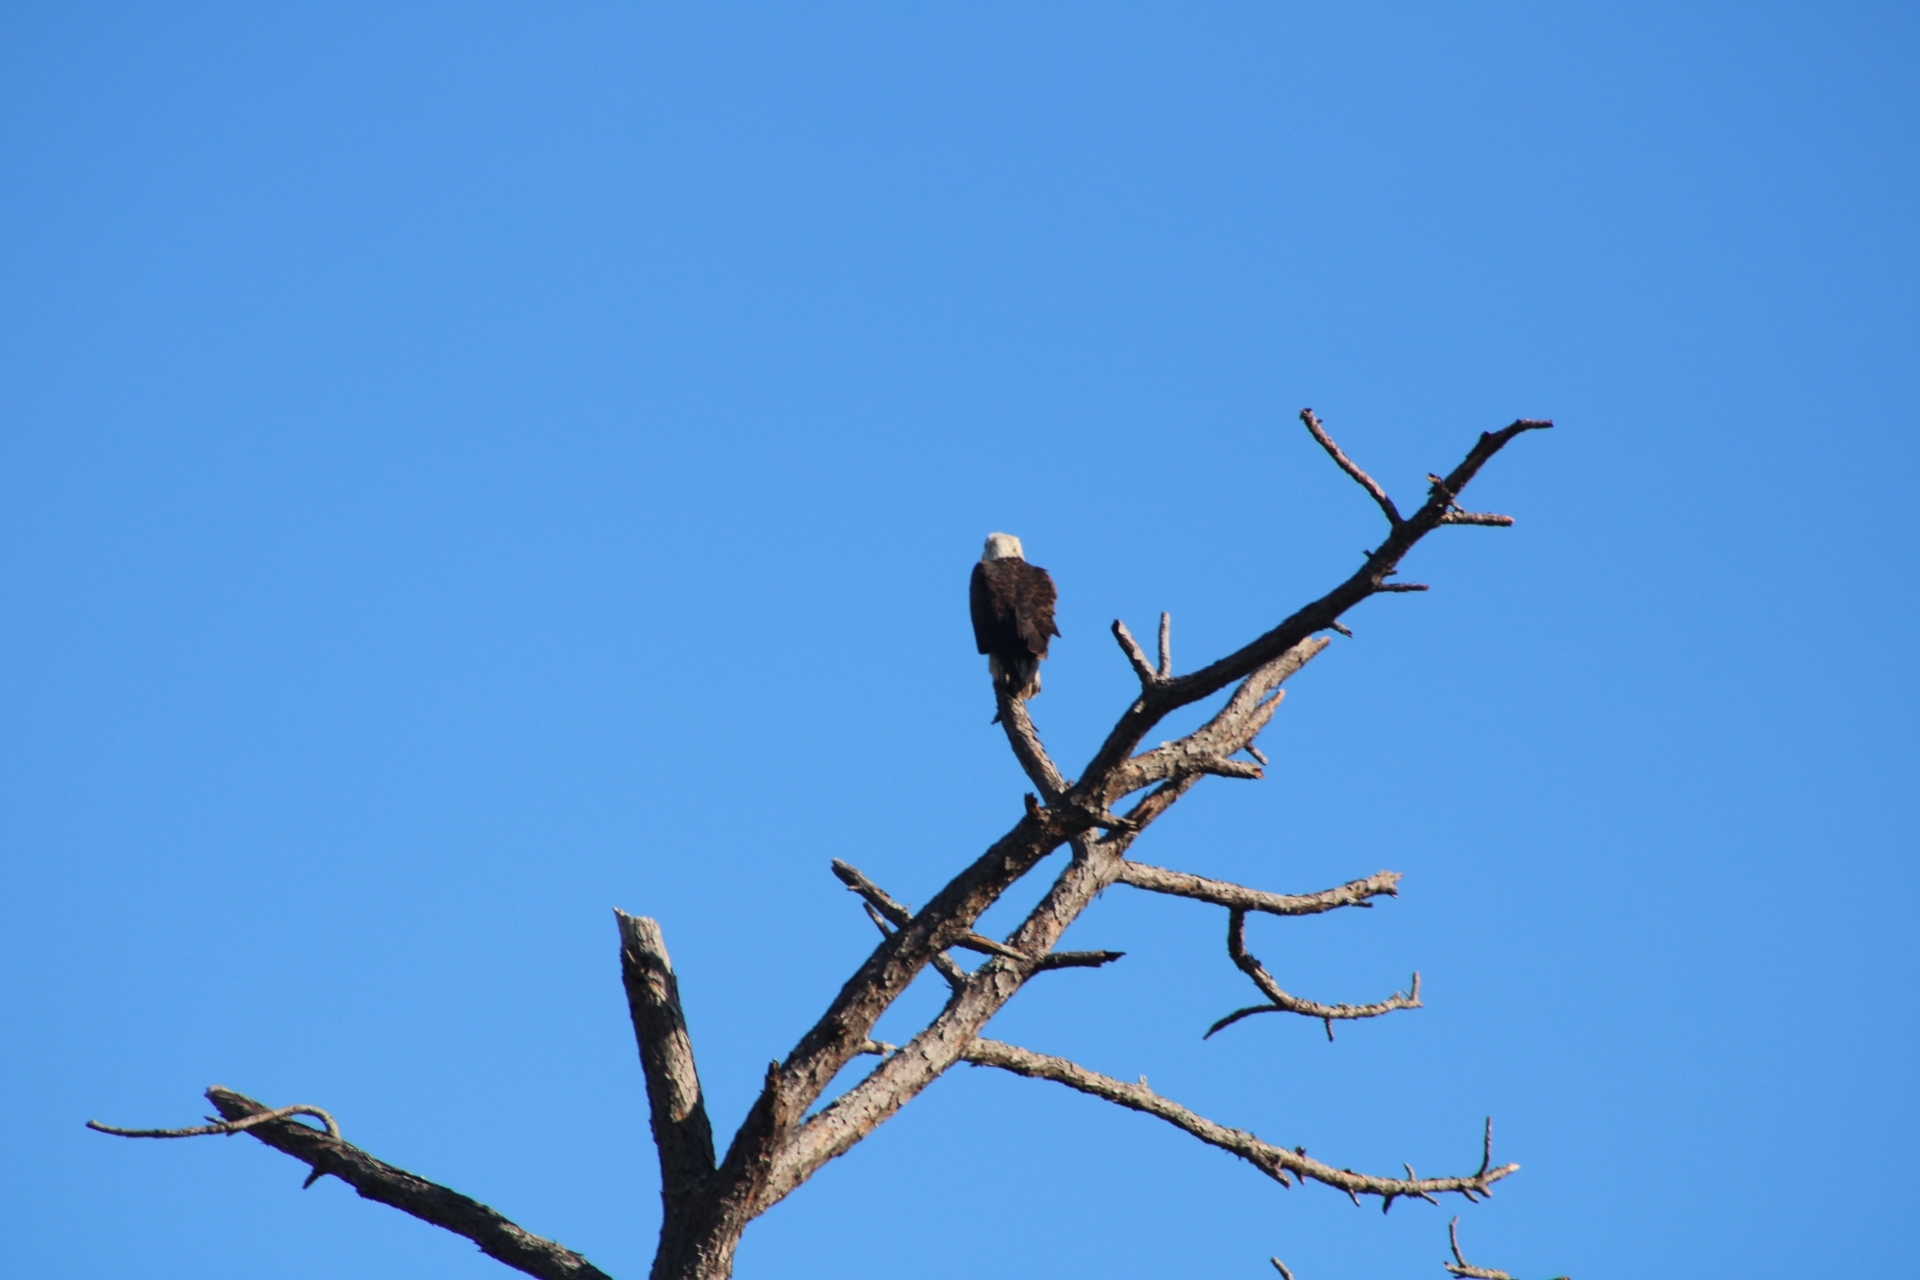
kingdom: Animalia
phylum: Chordata
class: Aves
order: Accipitriformes
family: Accipitridae
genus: Haliaeetus
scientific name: Haliaeetus leucocephalus
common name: Bald eagle
